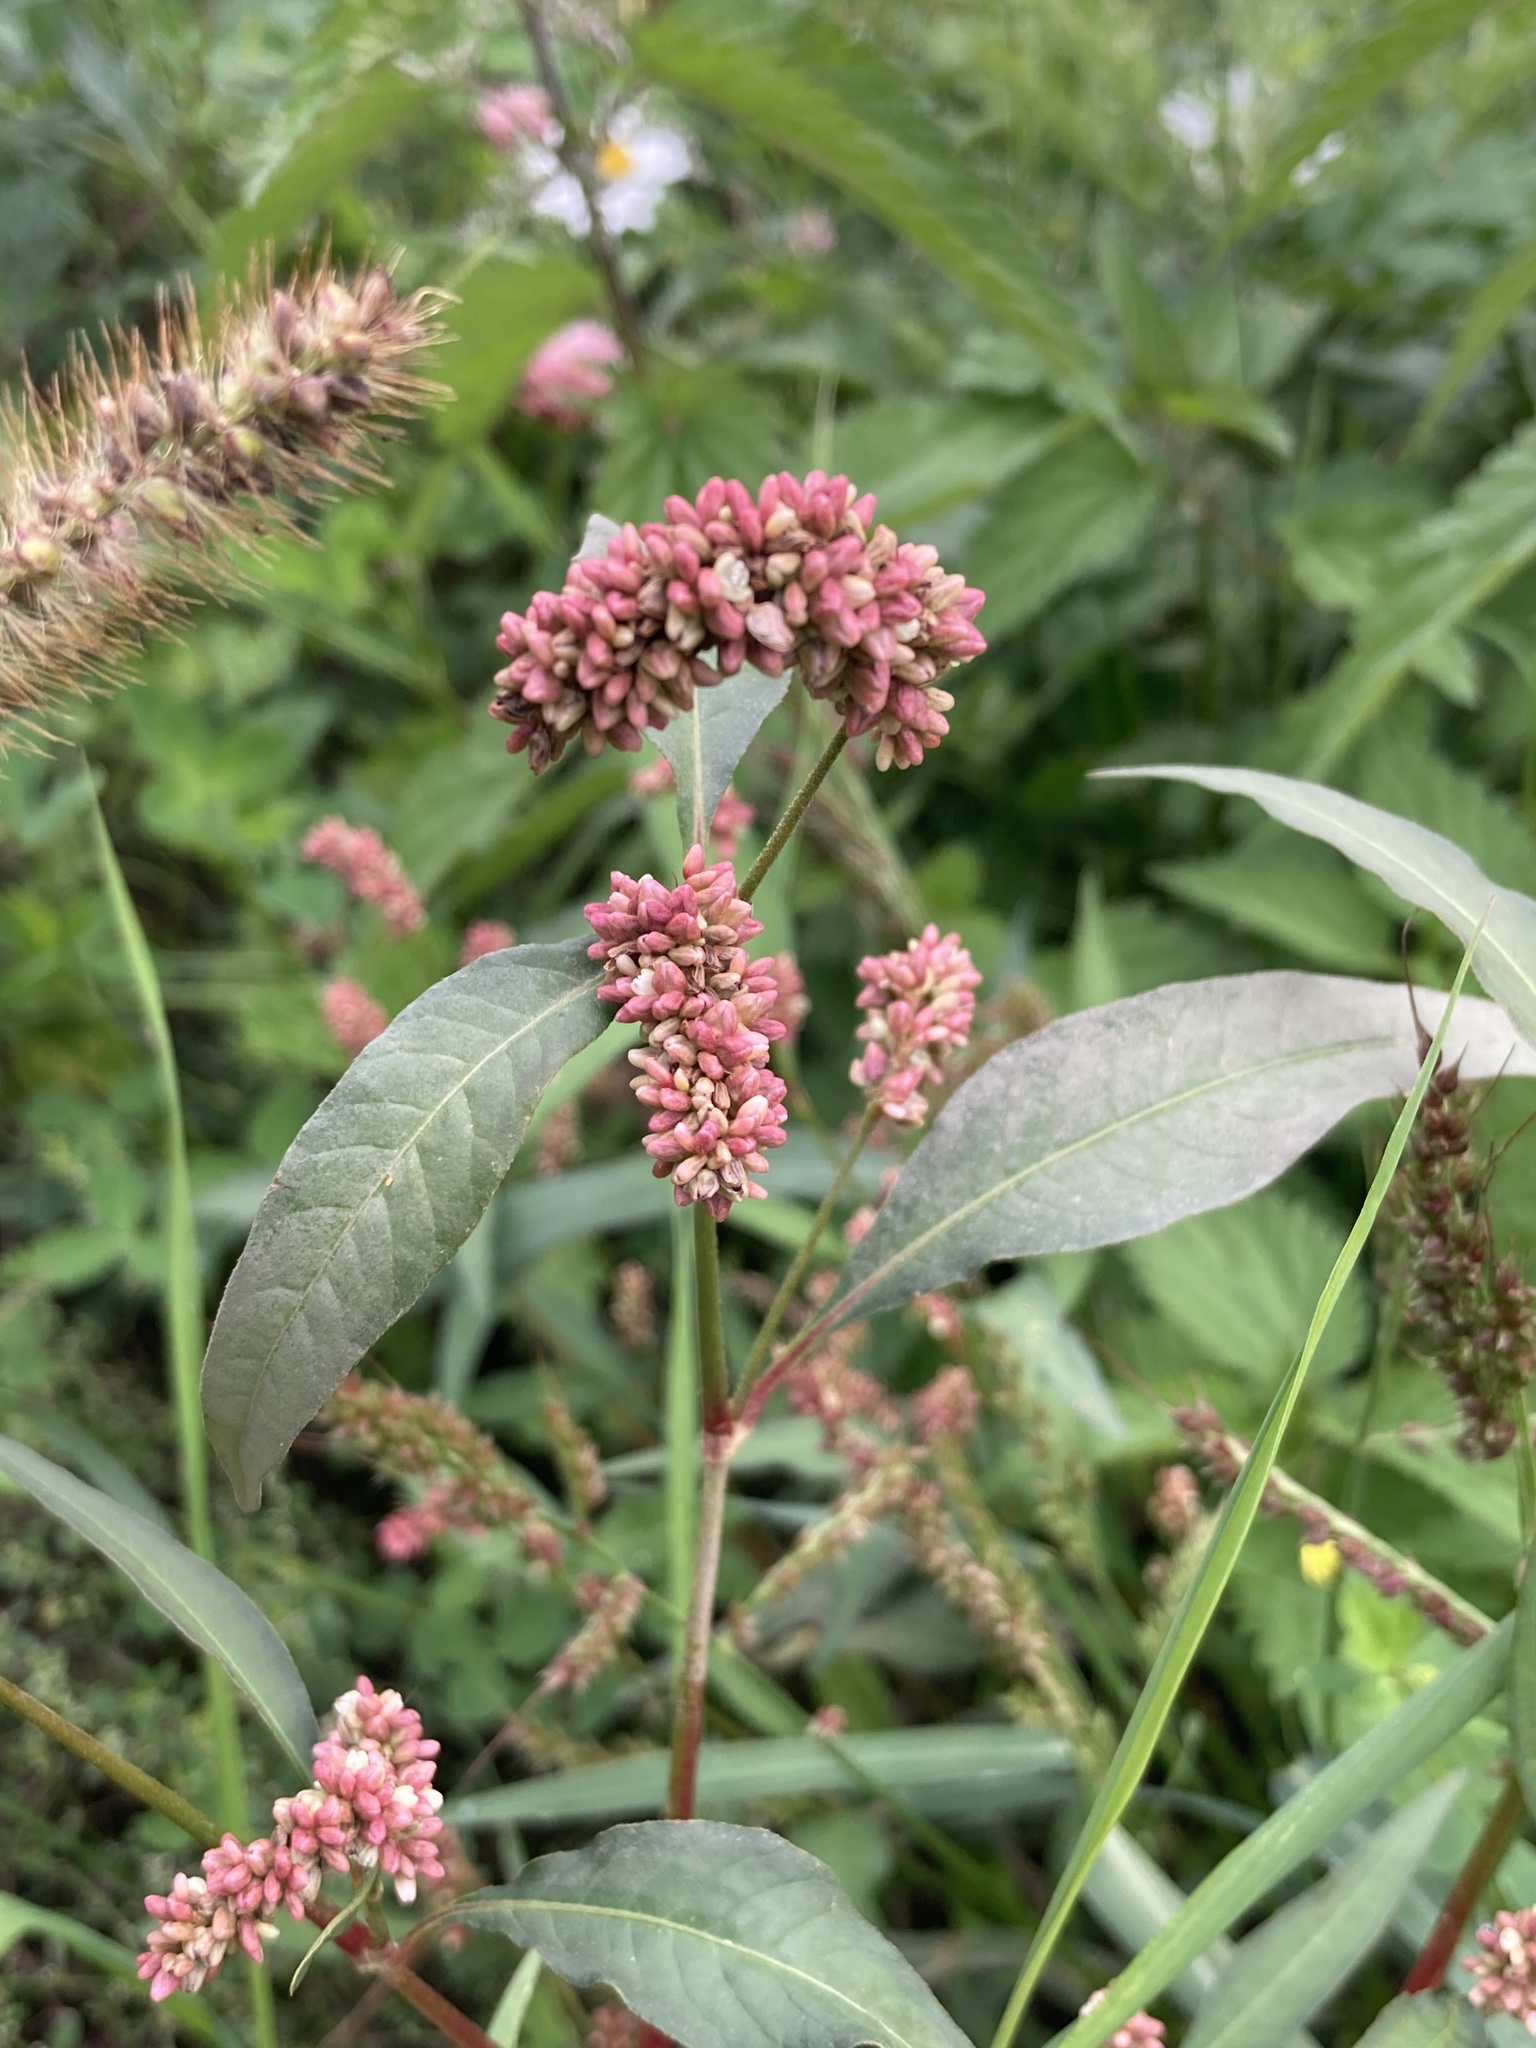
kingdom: Plantae
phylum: Tracheophyta
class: Magnoliopsida
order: Caryophyllales
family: Polygonaceae
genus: Persicaria
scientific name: Persicaria lapathifolia
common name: Curlytop knotweed
